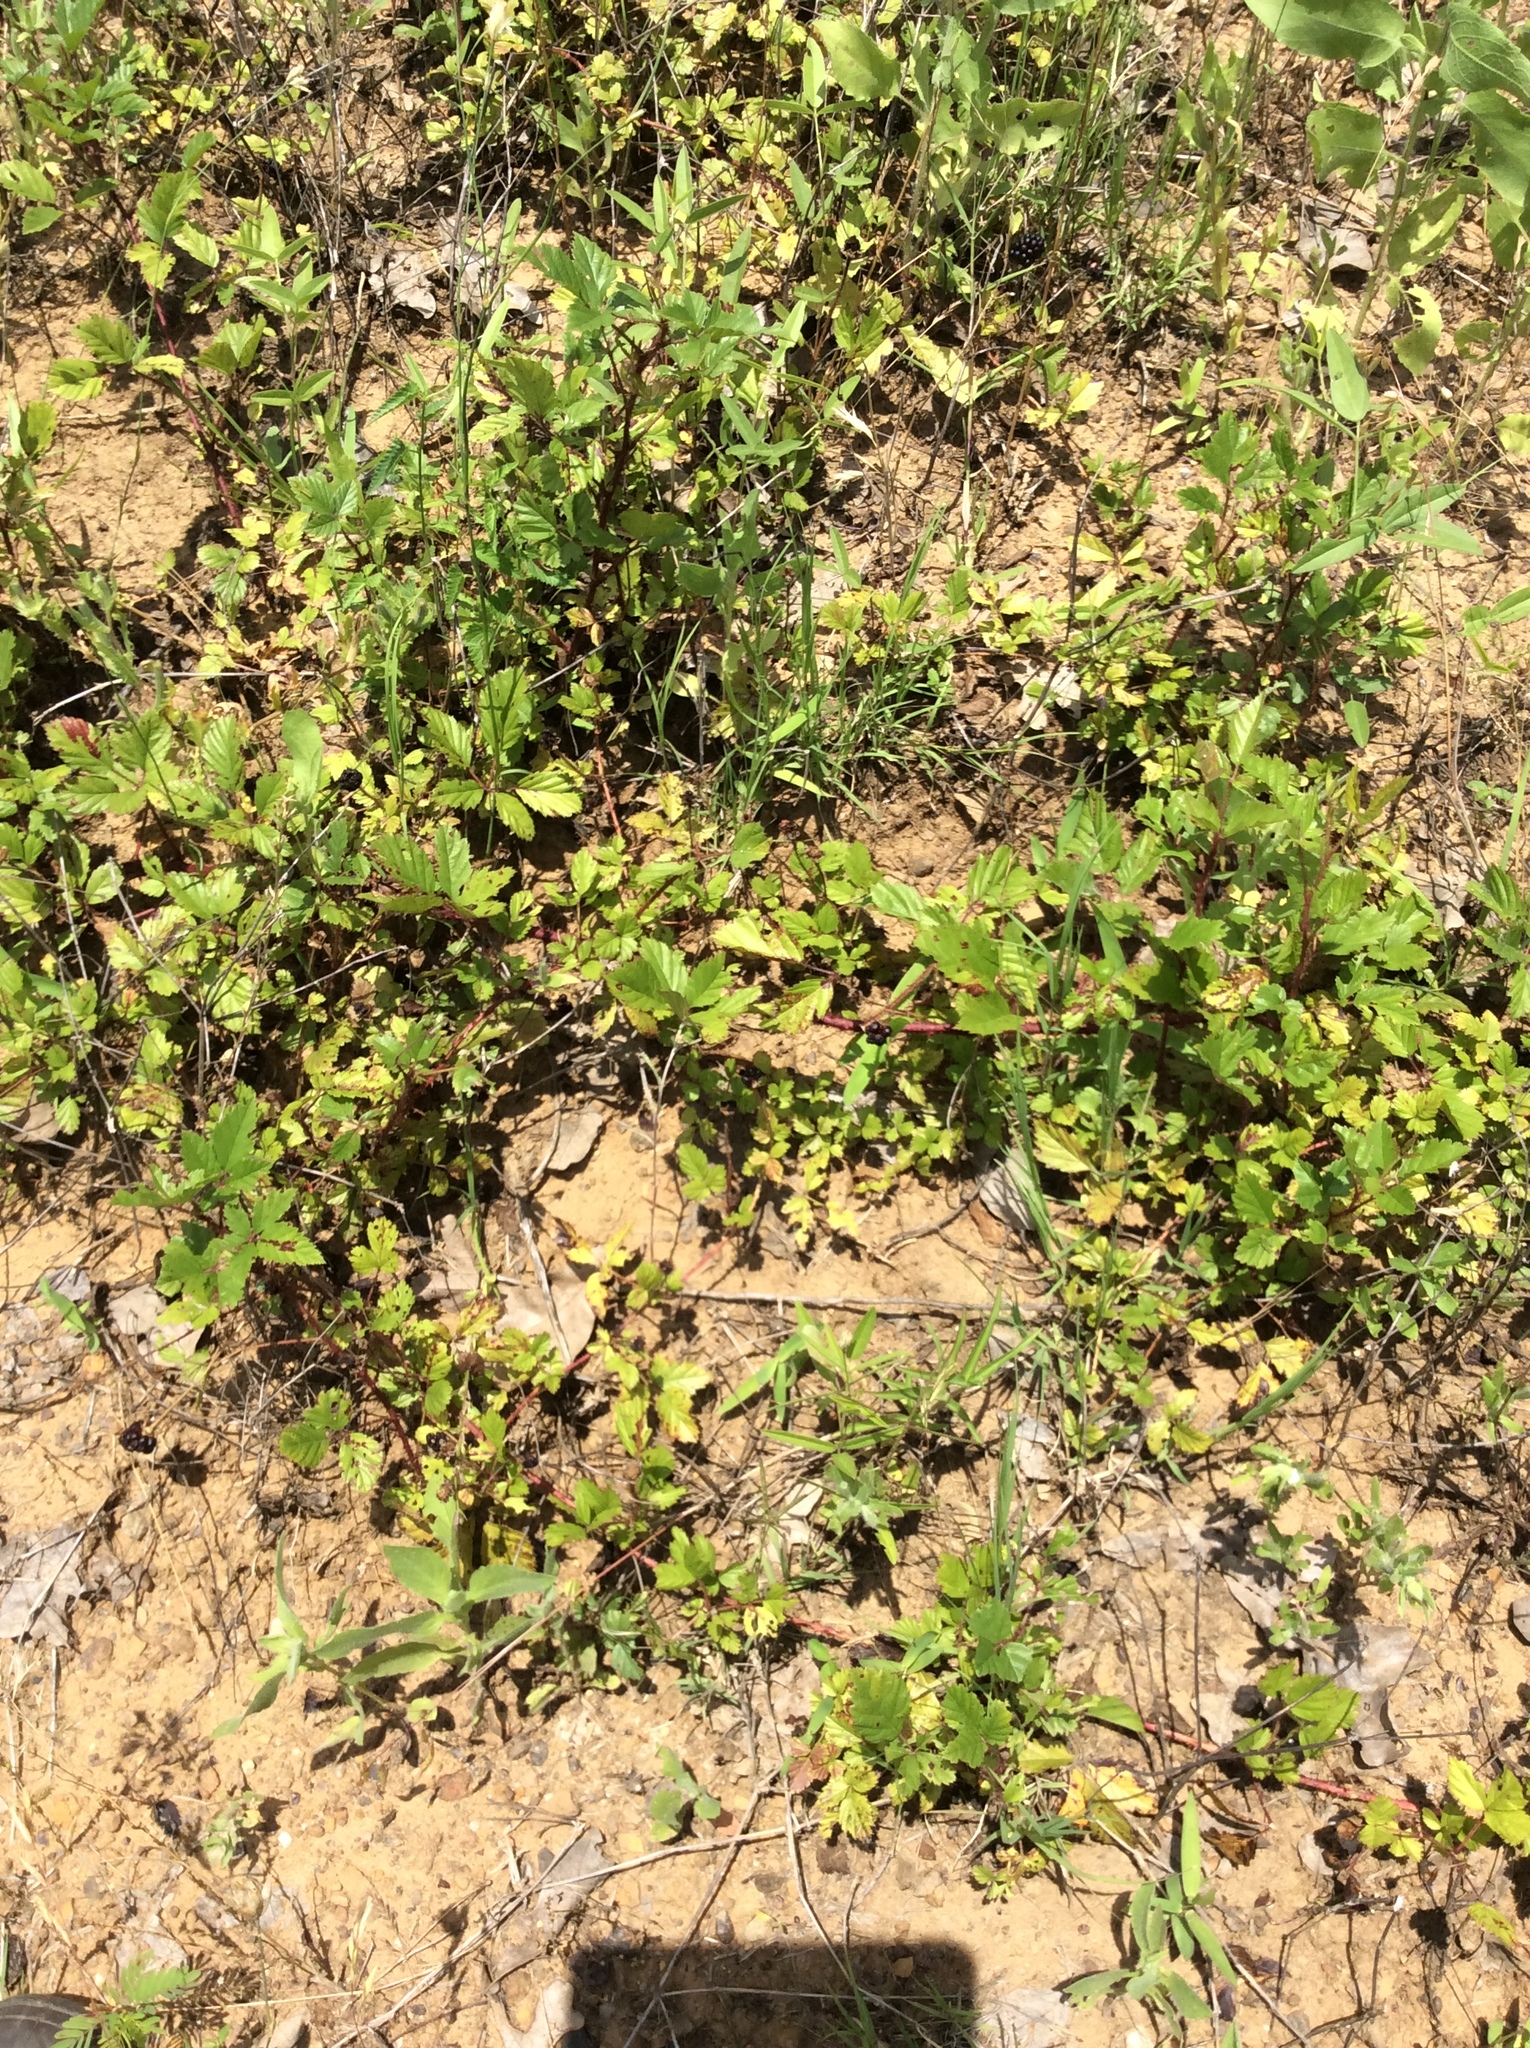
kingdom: Plantae
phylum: Tracheophyta
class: Magnoliopsida
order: Rosales
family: Rosaceae
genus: Rubus
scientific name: Rubus trivialis
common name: Southern dewberry
